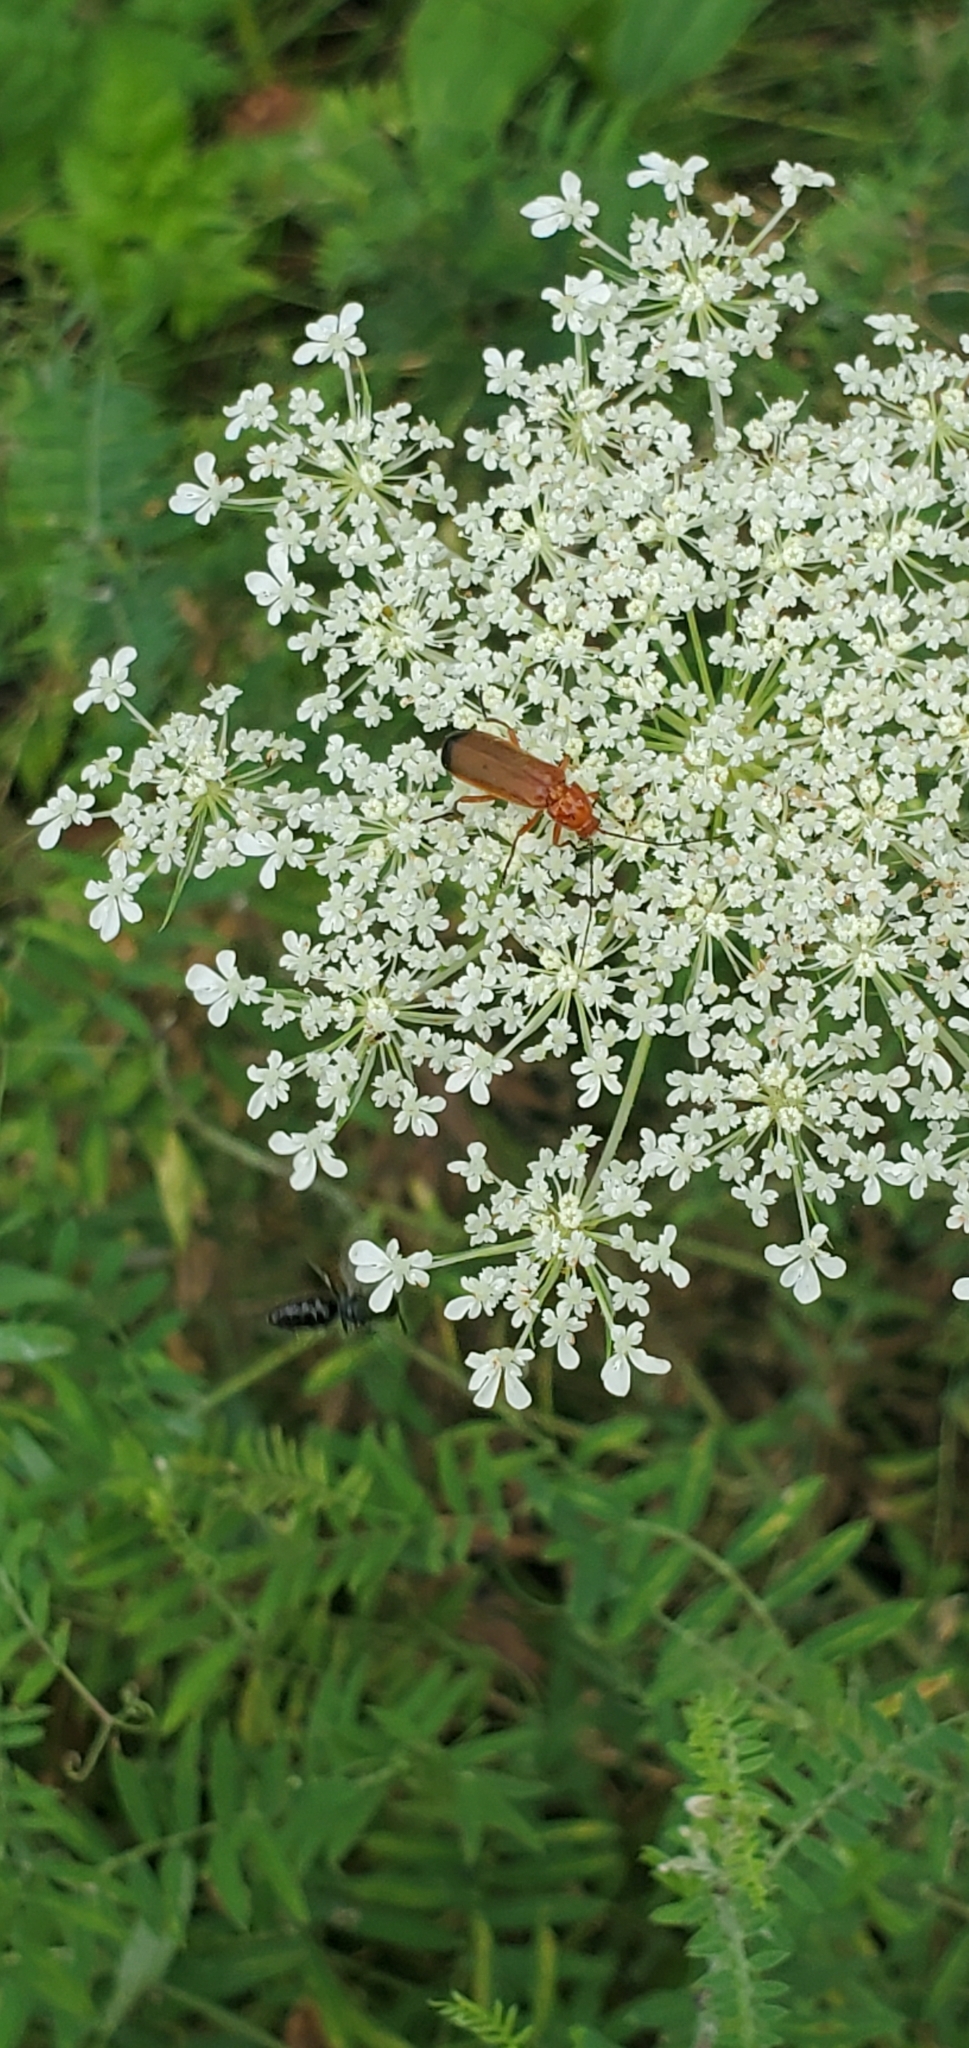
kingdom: Animalia
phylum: Arthropoda
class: Insecta
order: Coleoptera
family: Cantharidae
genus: Rhagonycha
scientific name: Rhagonycha fulva
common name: Common red soldier beetle
